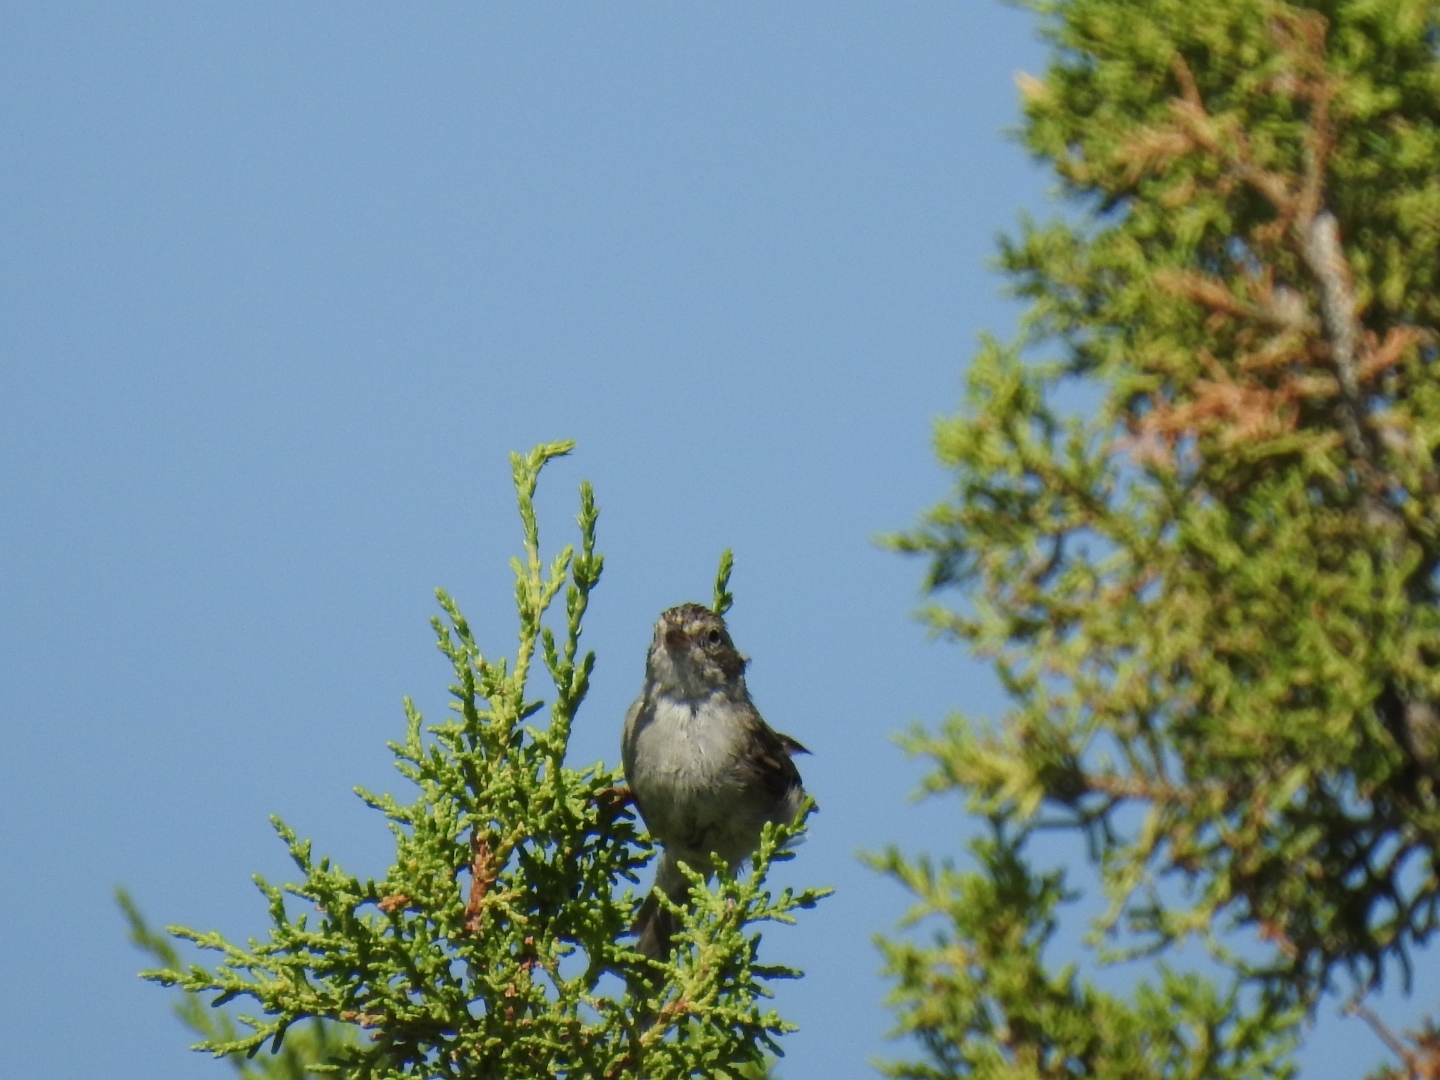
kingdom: Animalia
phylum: Chordata
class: Aves
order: Passeriformes
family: Passerellidae
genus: Spizella
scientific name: Spizella breweri
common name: Brewer's sparrow
